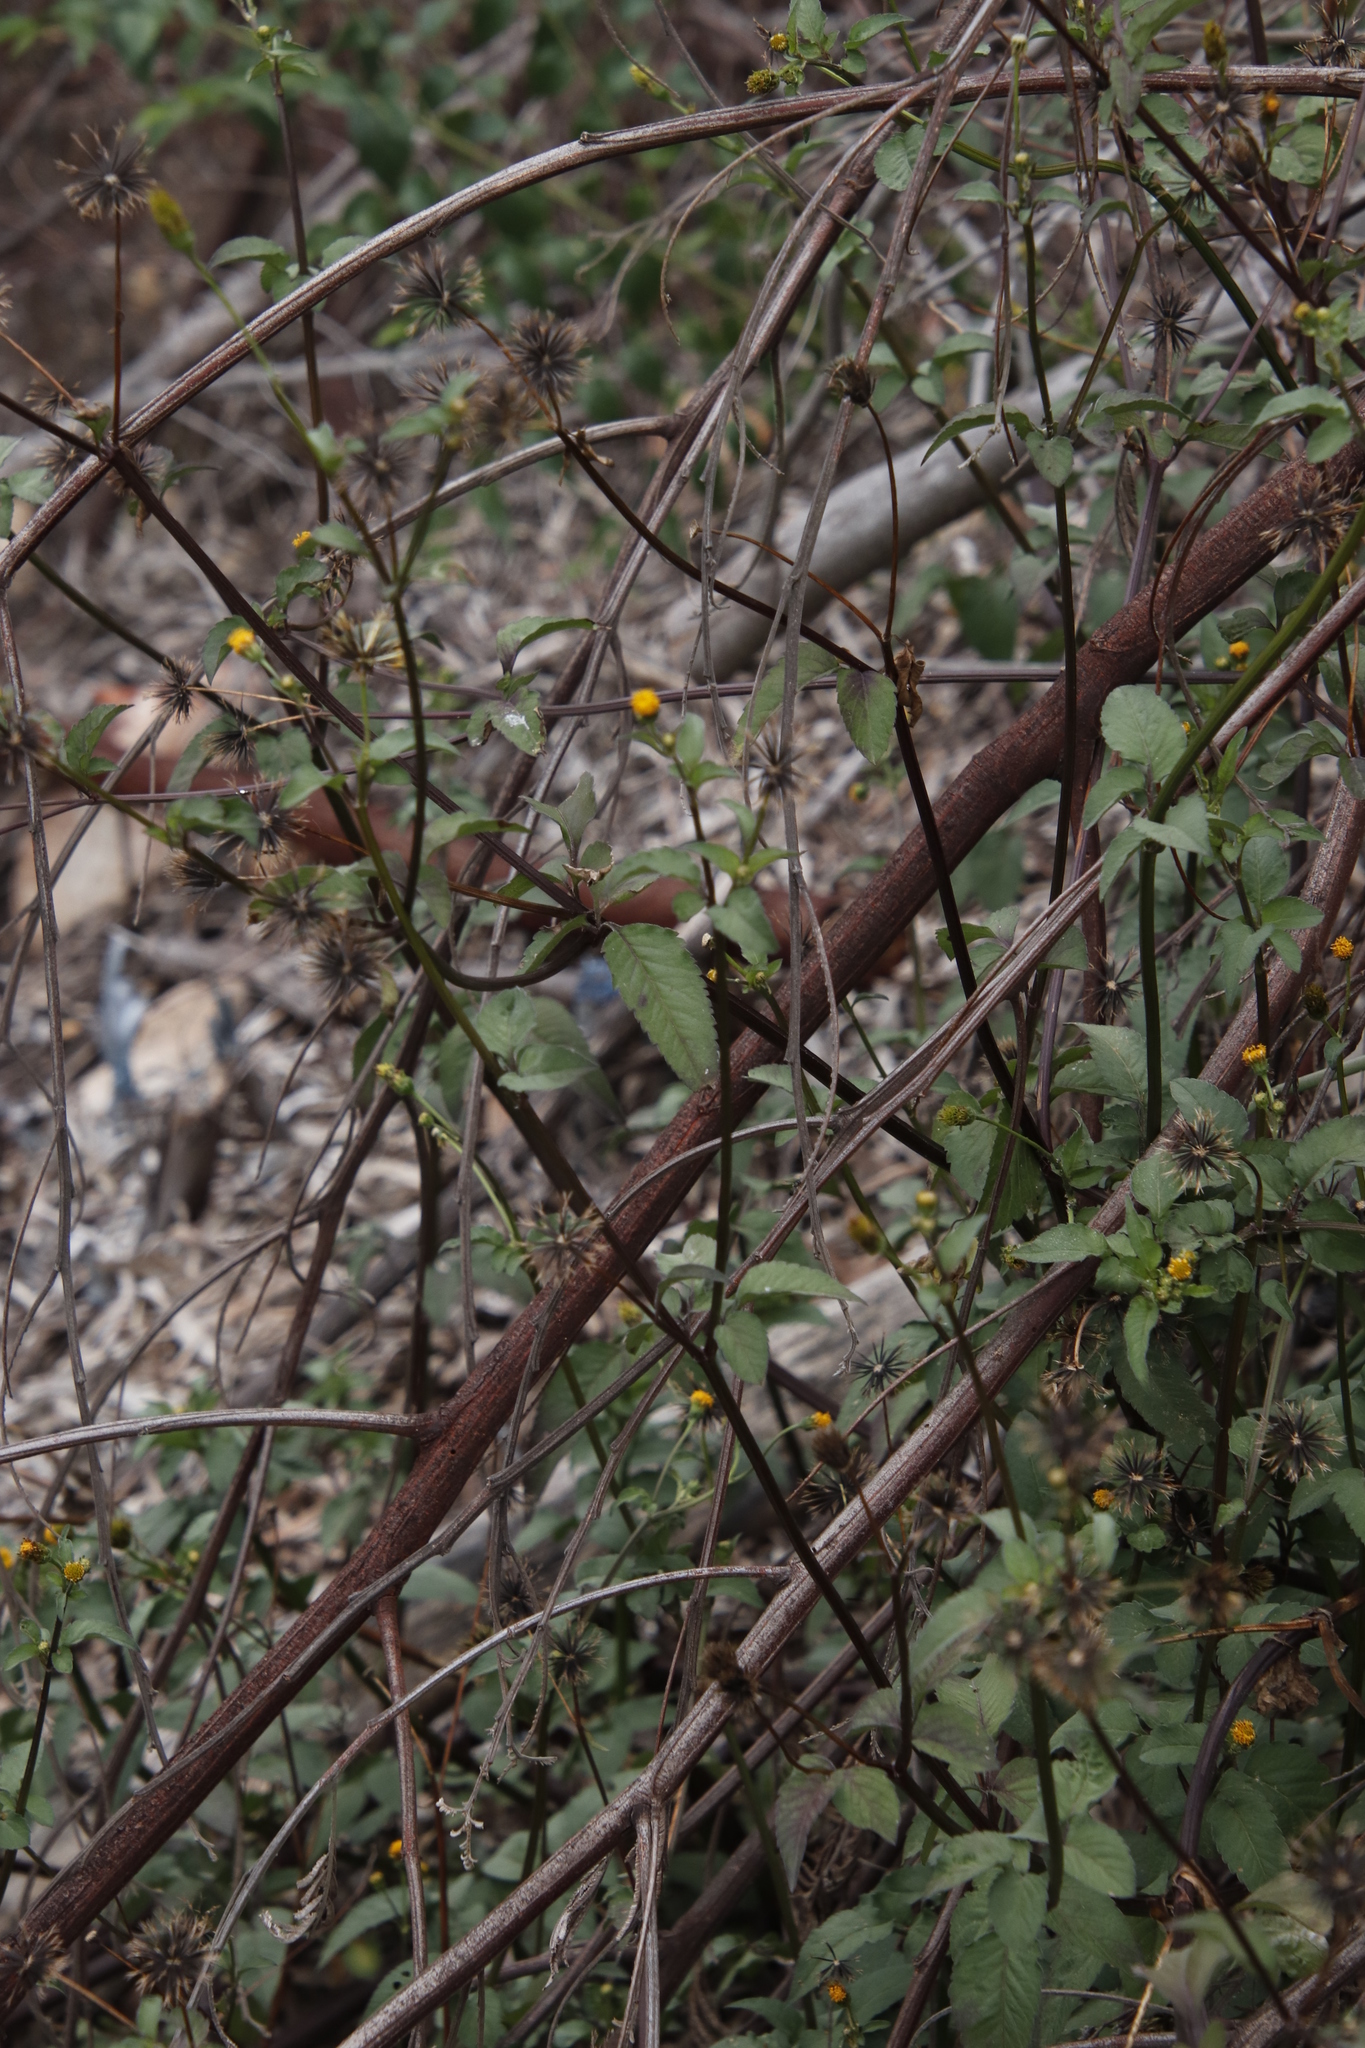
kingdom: Plantae
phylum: Tracheophyta
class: Magnoliopsida
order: Asterales
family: Asteraceae
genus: Bidens
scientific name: Bidens pilosa
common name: Black-jack
